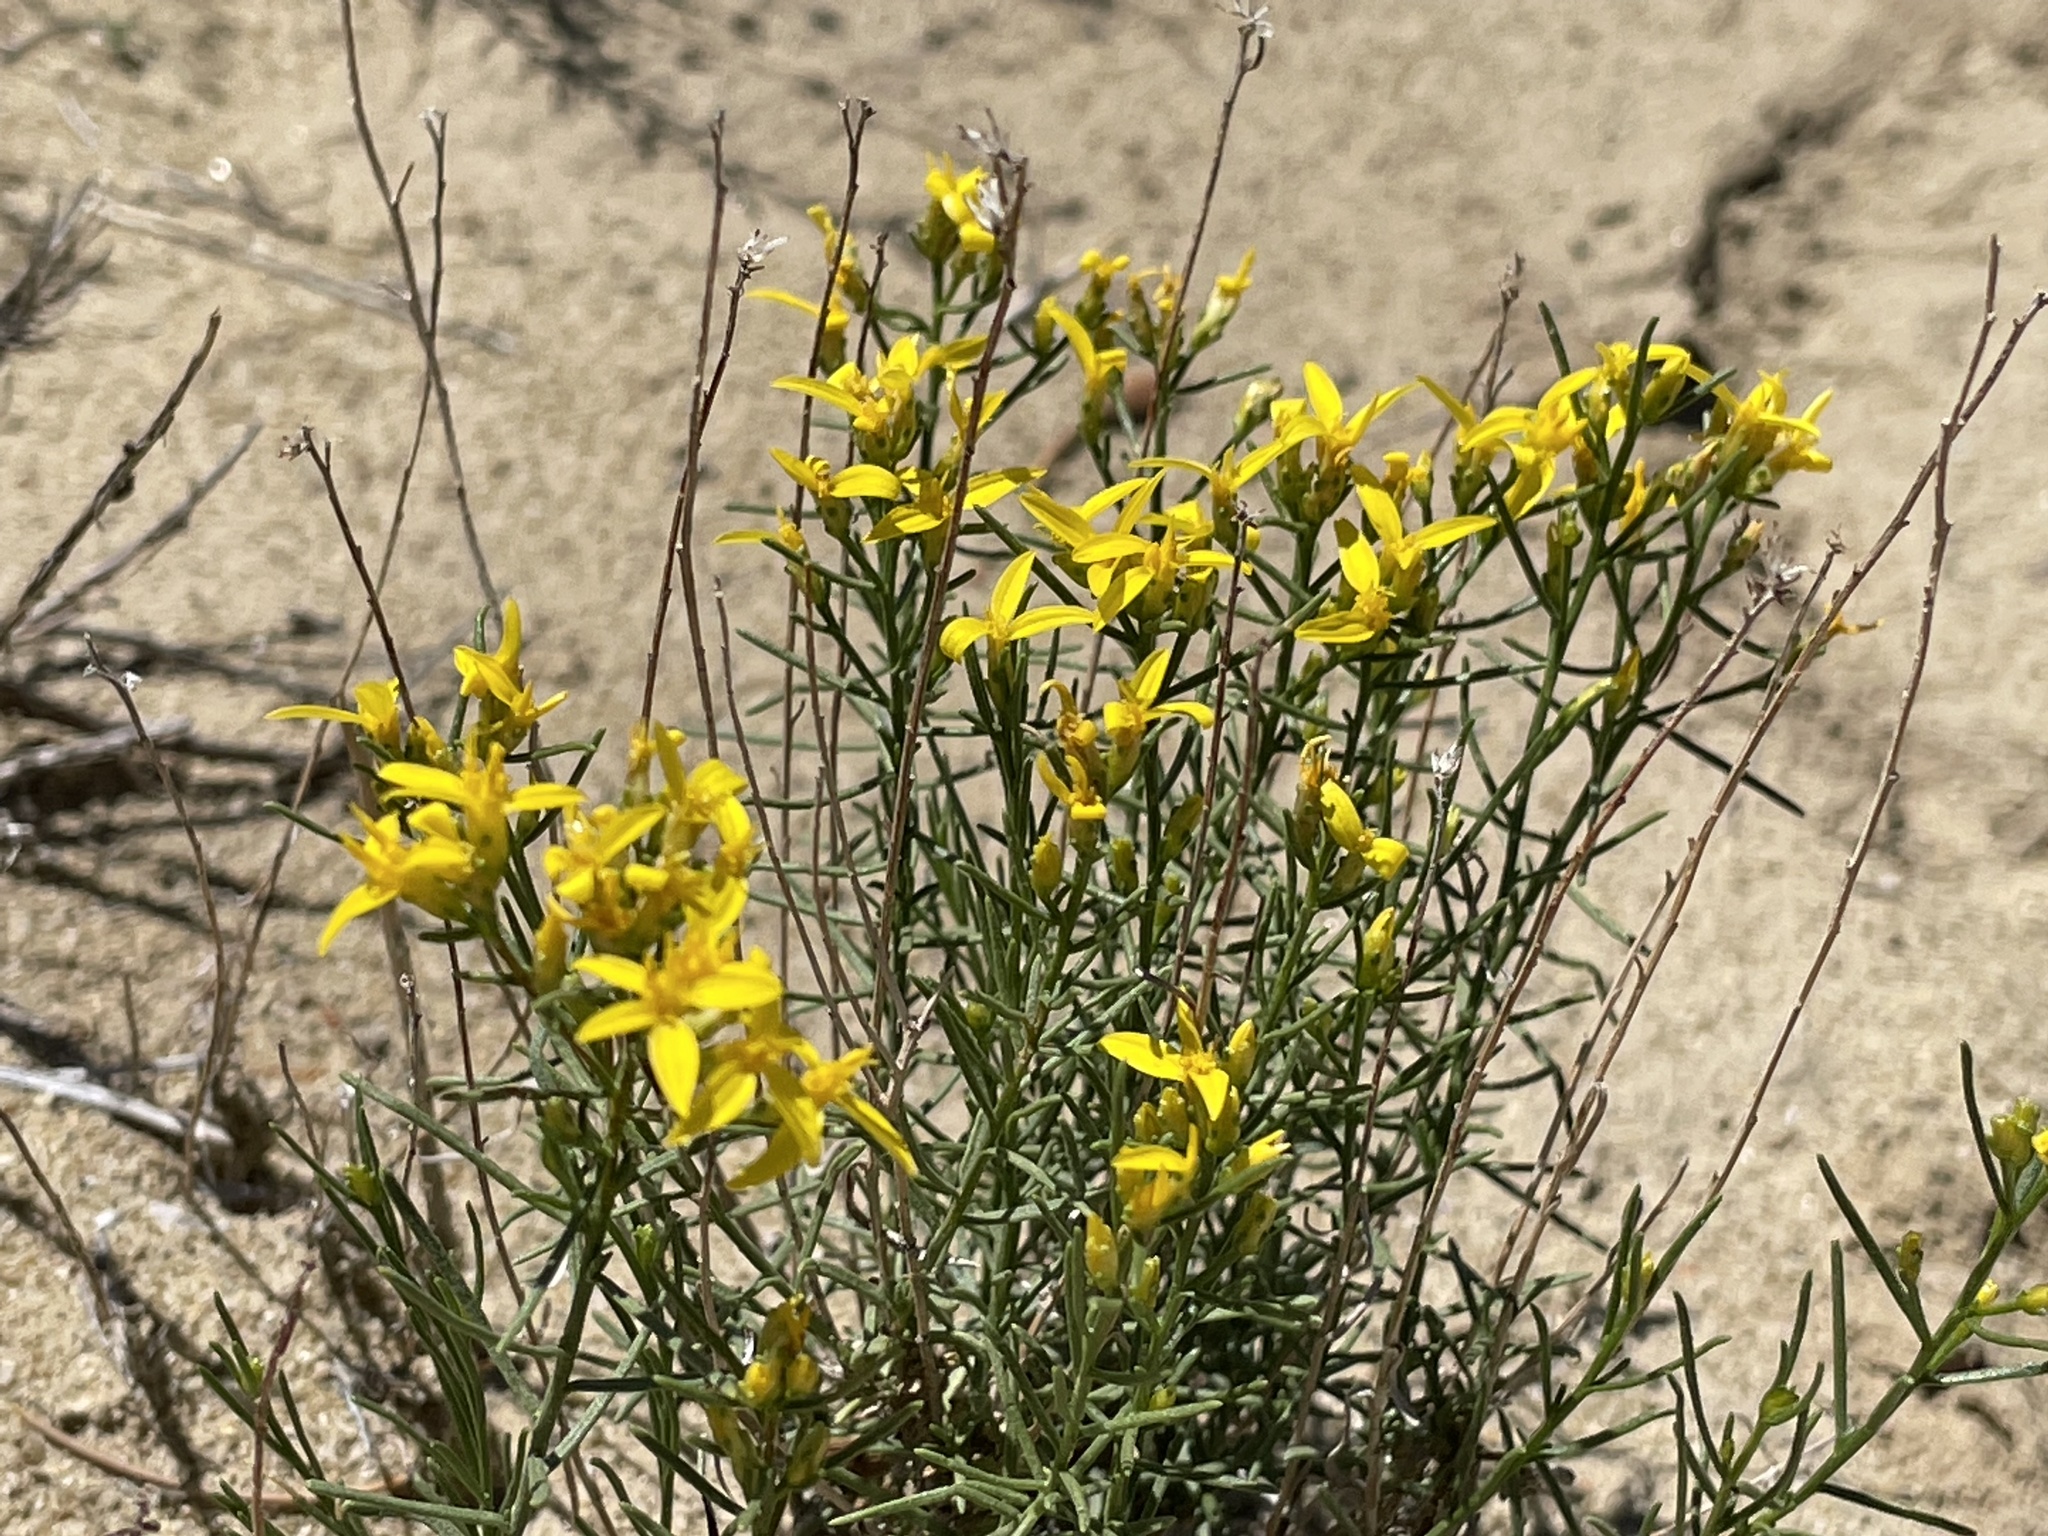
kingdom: Plantae
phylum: Tracheophyta
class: Magnoliopsida
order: Asterales
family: Asteraceae
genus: Gutierrezia
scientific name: Gutierrezia sarothrae
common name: Broom snakeweed
